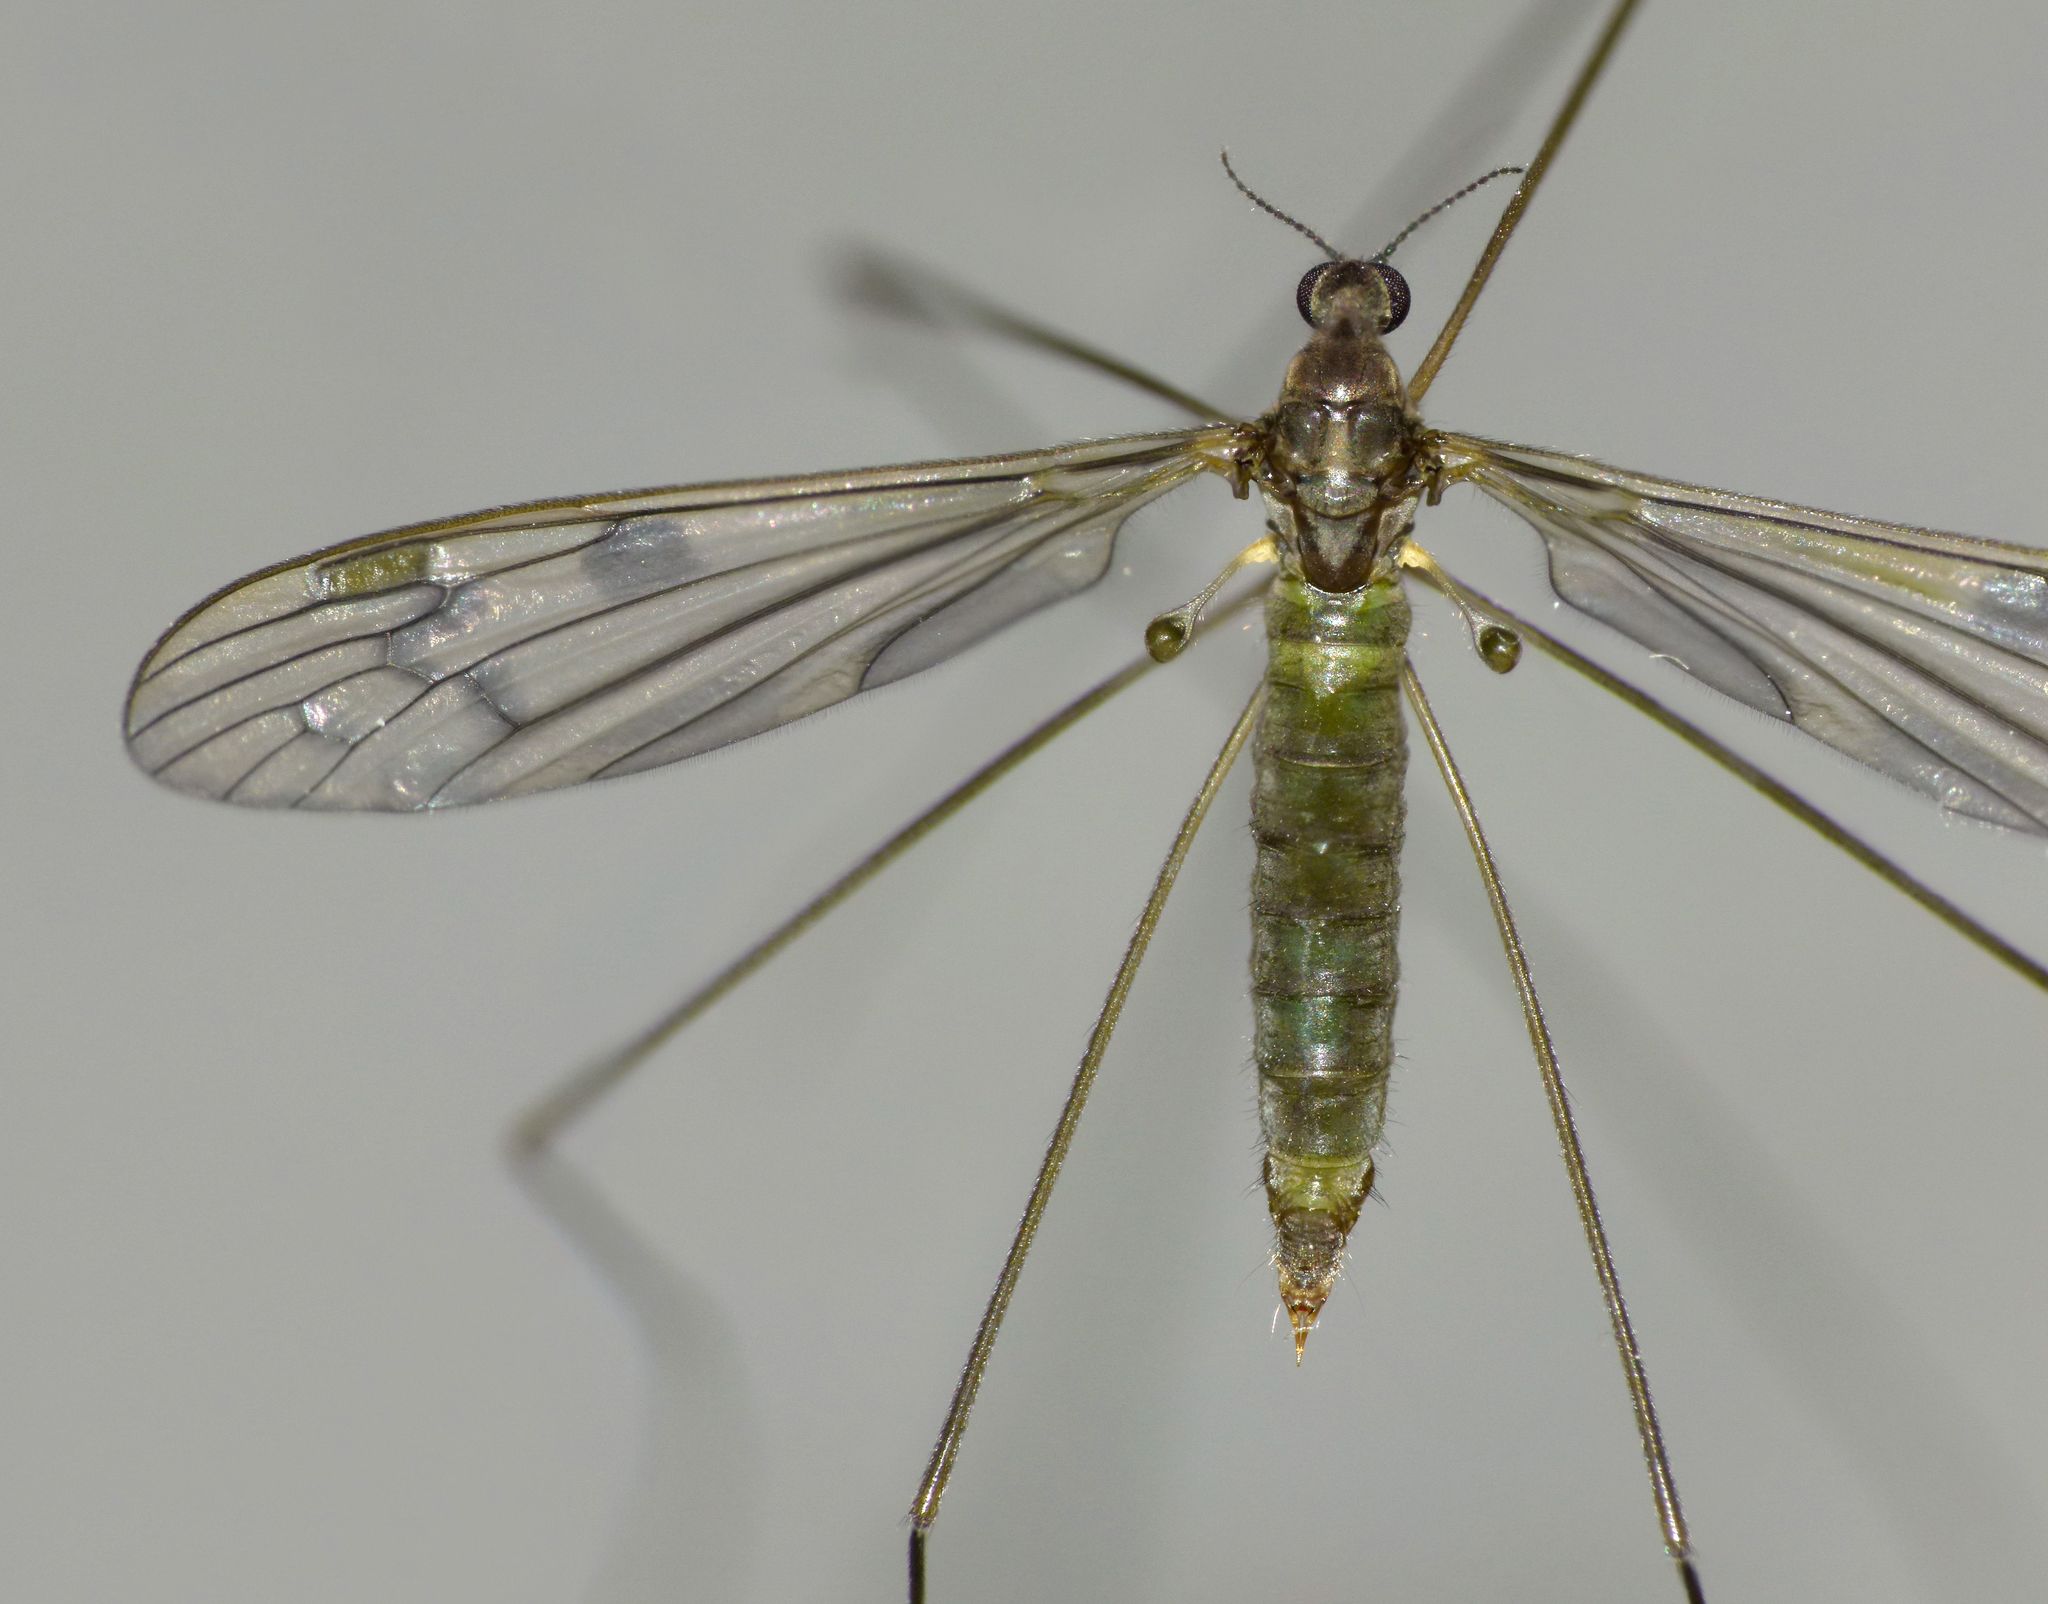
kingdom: Animalia
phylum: Arthropoda
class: Insecta
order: Diptera
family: Limoniidae
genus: Libnotes
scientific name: Libnotes falcata
